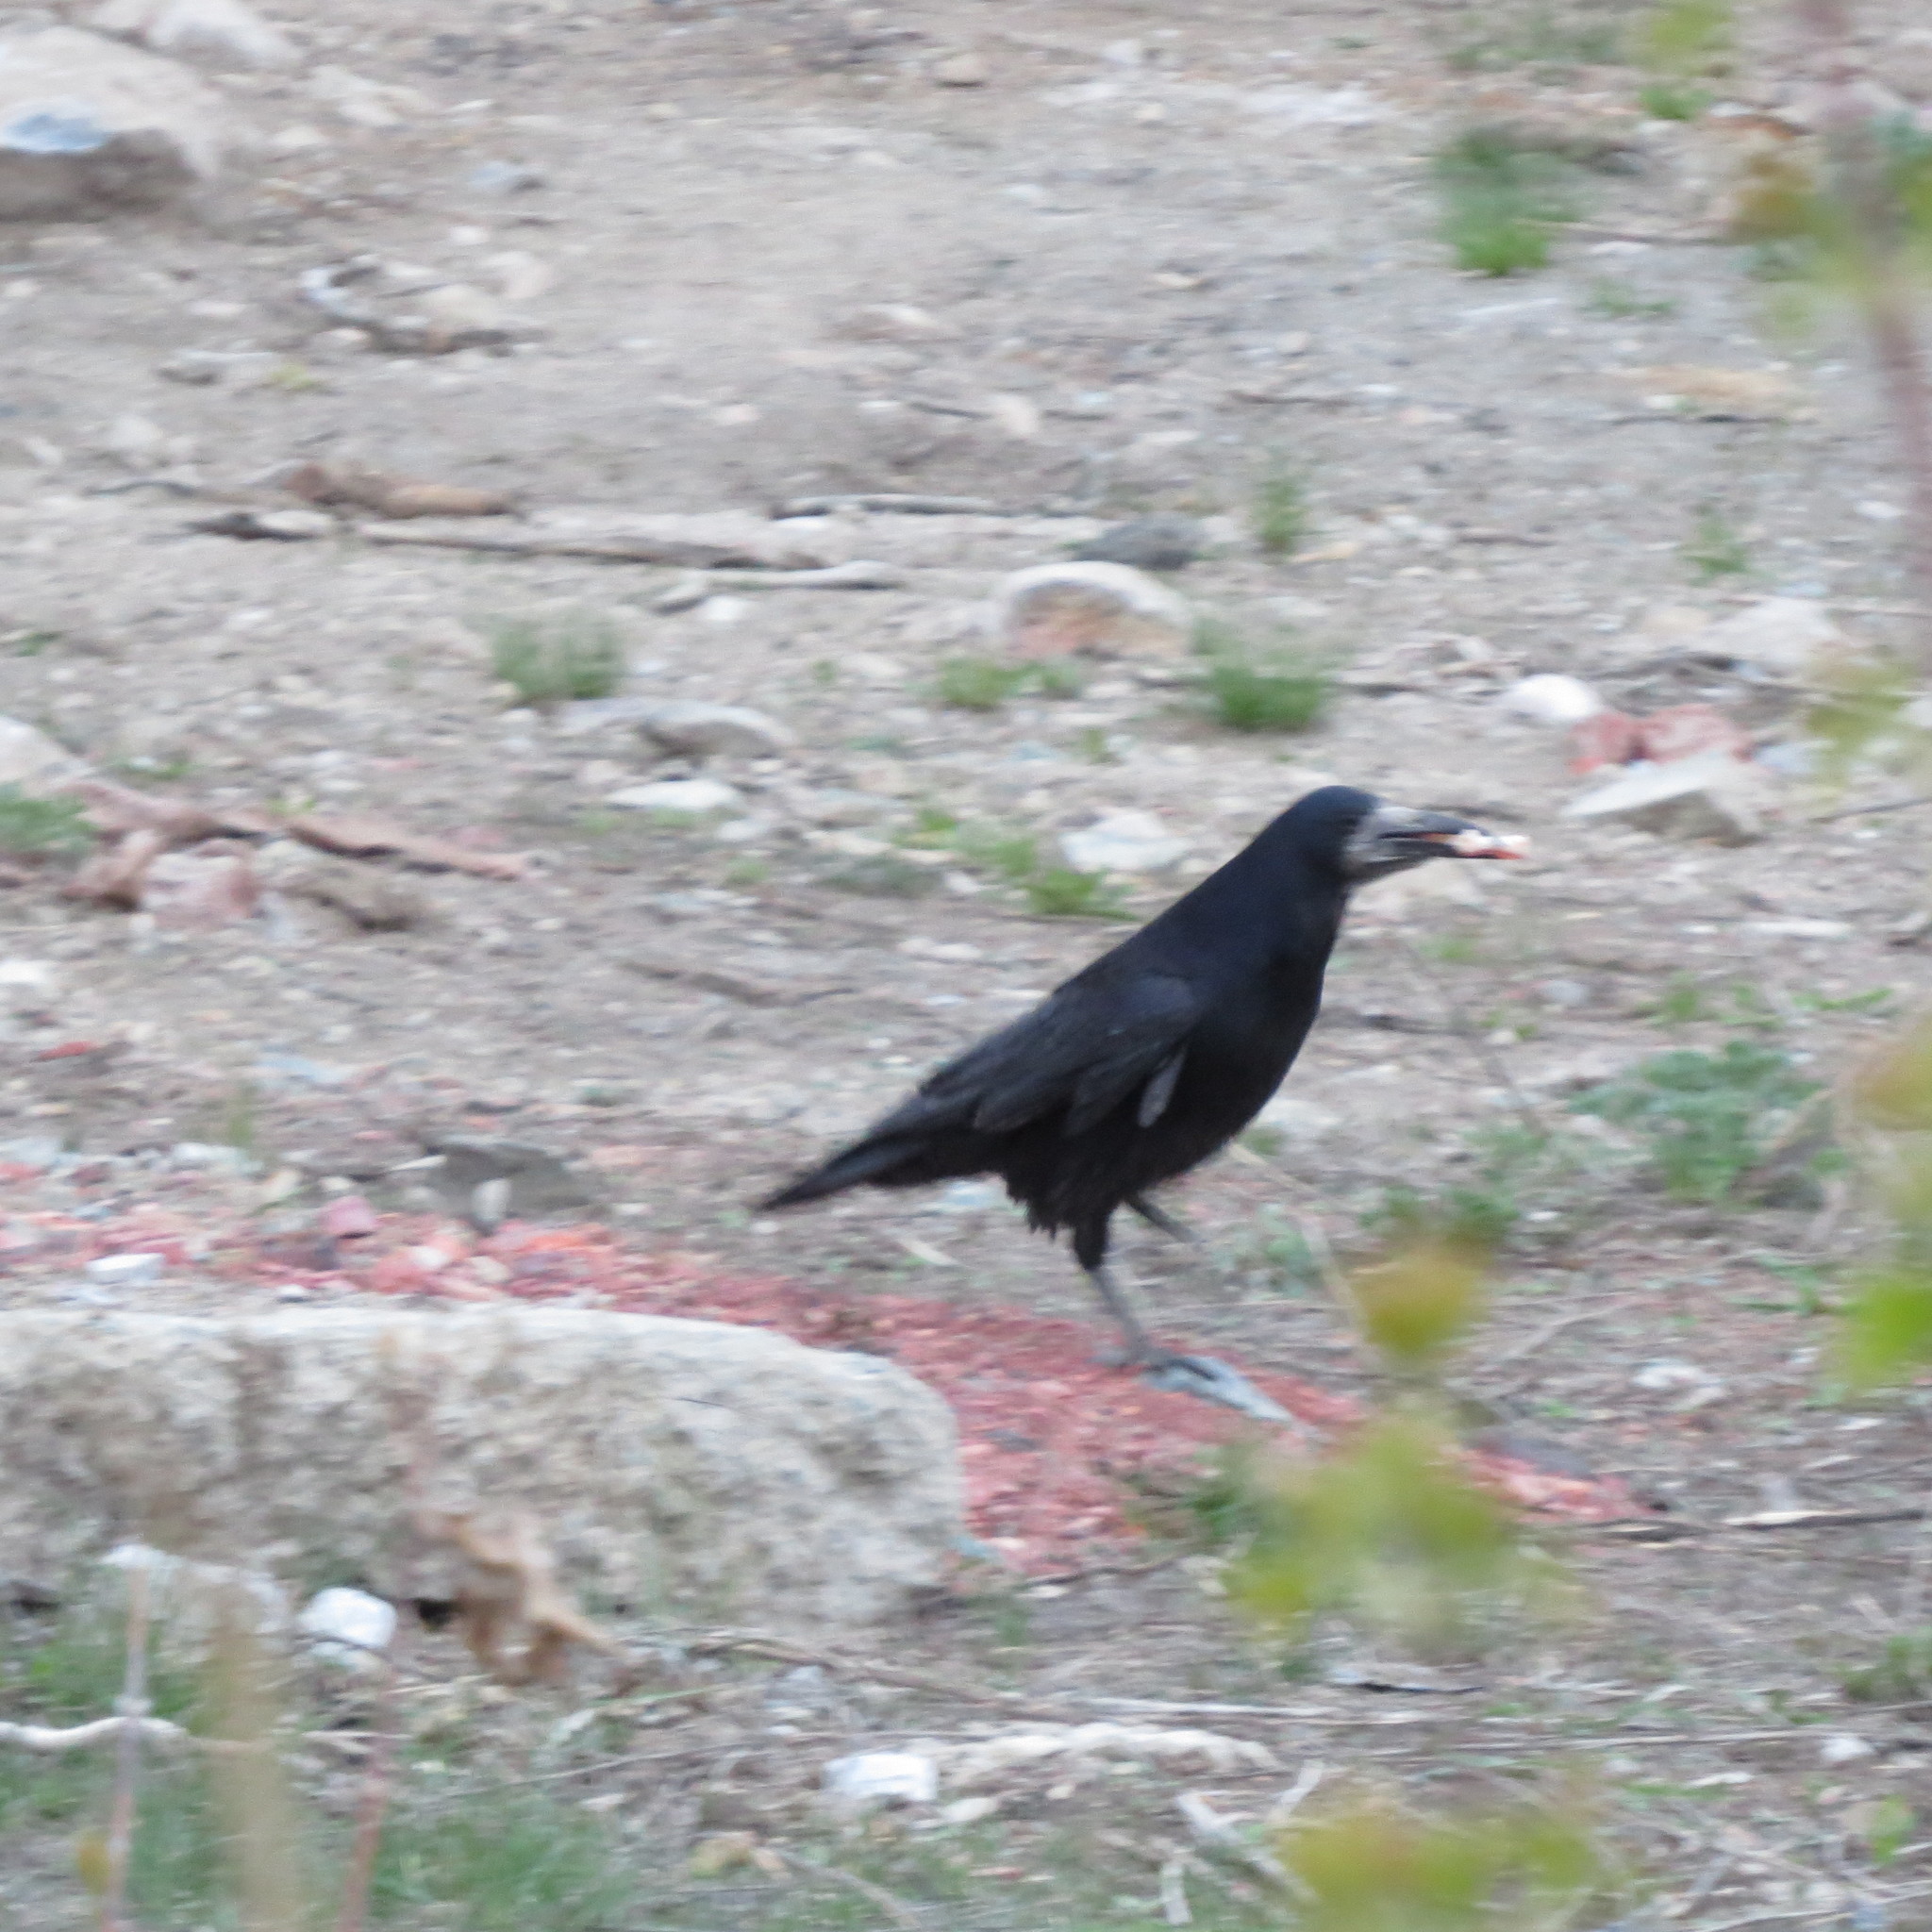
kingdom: Animalia
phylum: Chordata
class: Aves
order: Passeriformes
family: Corvidae
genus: Corvus
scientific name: Corvus frugilegus
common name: Rook
